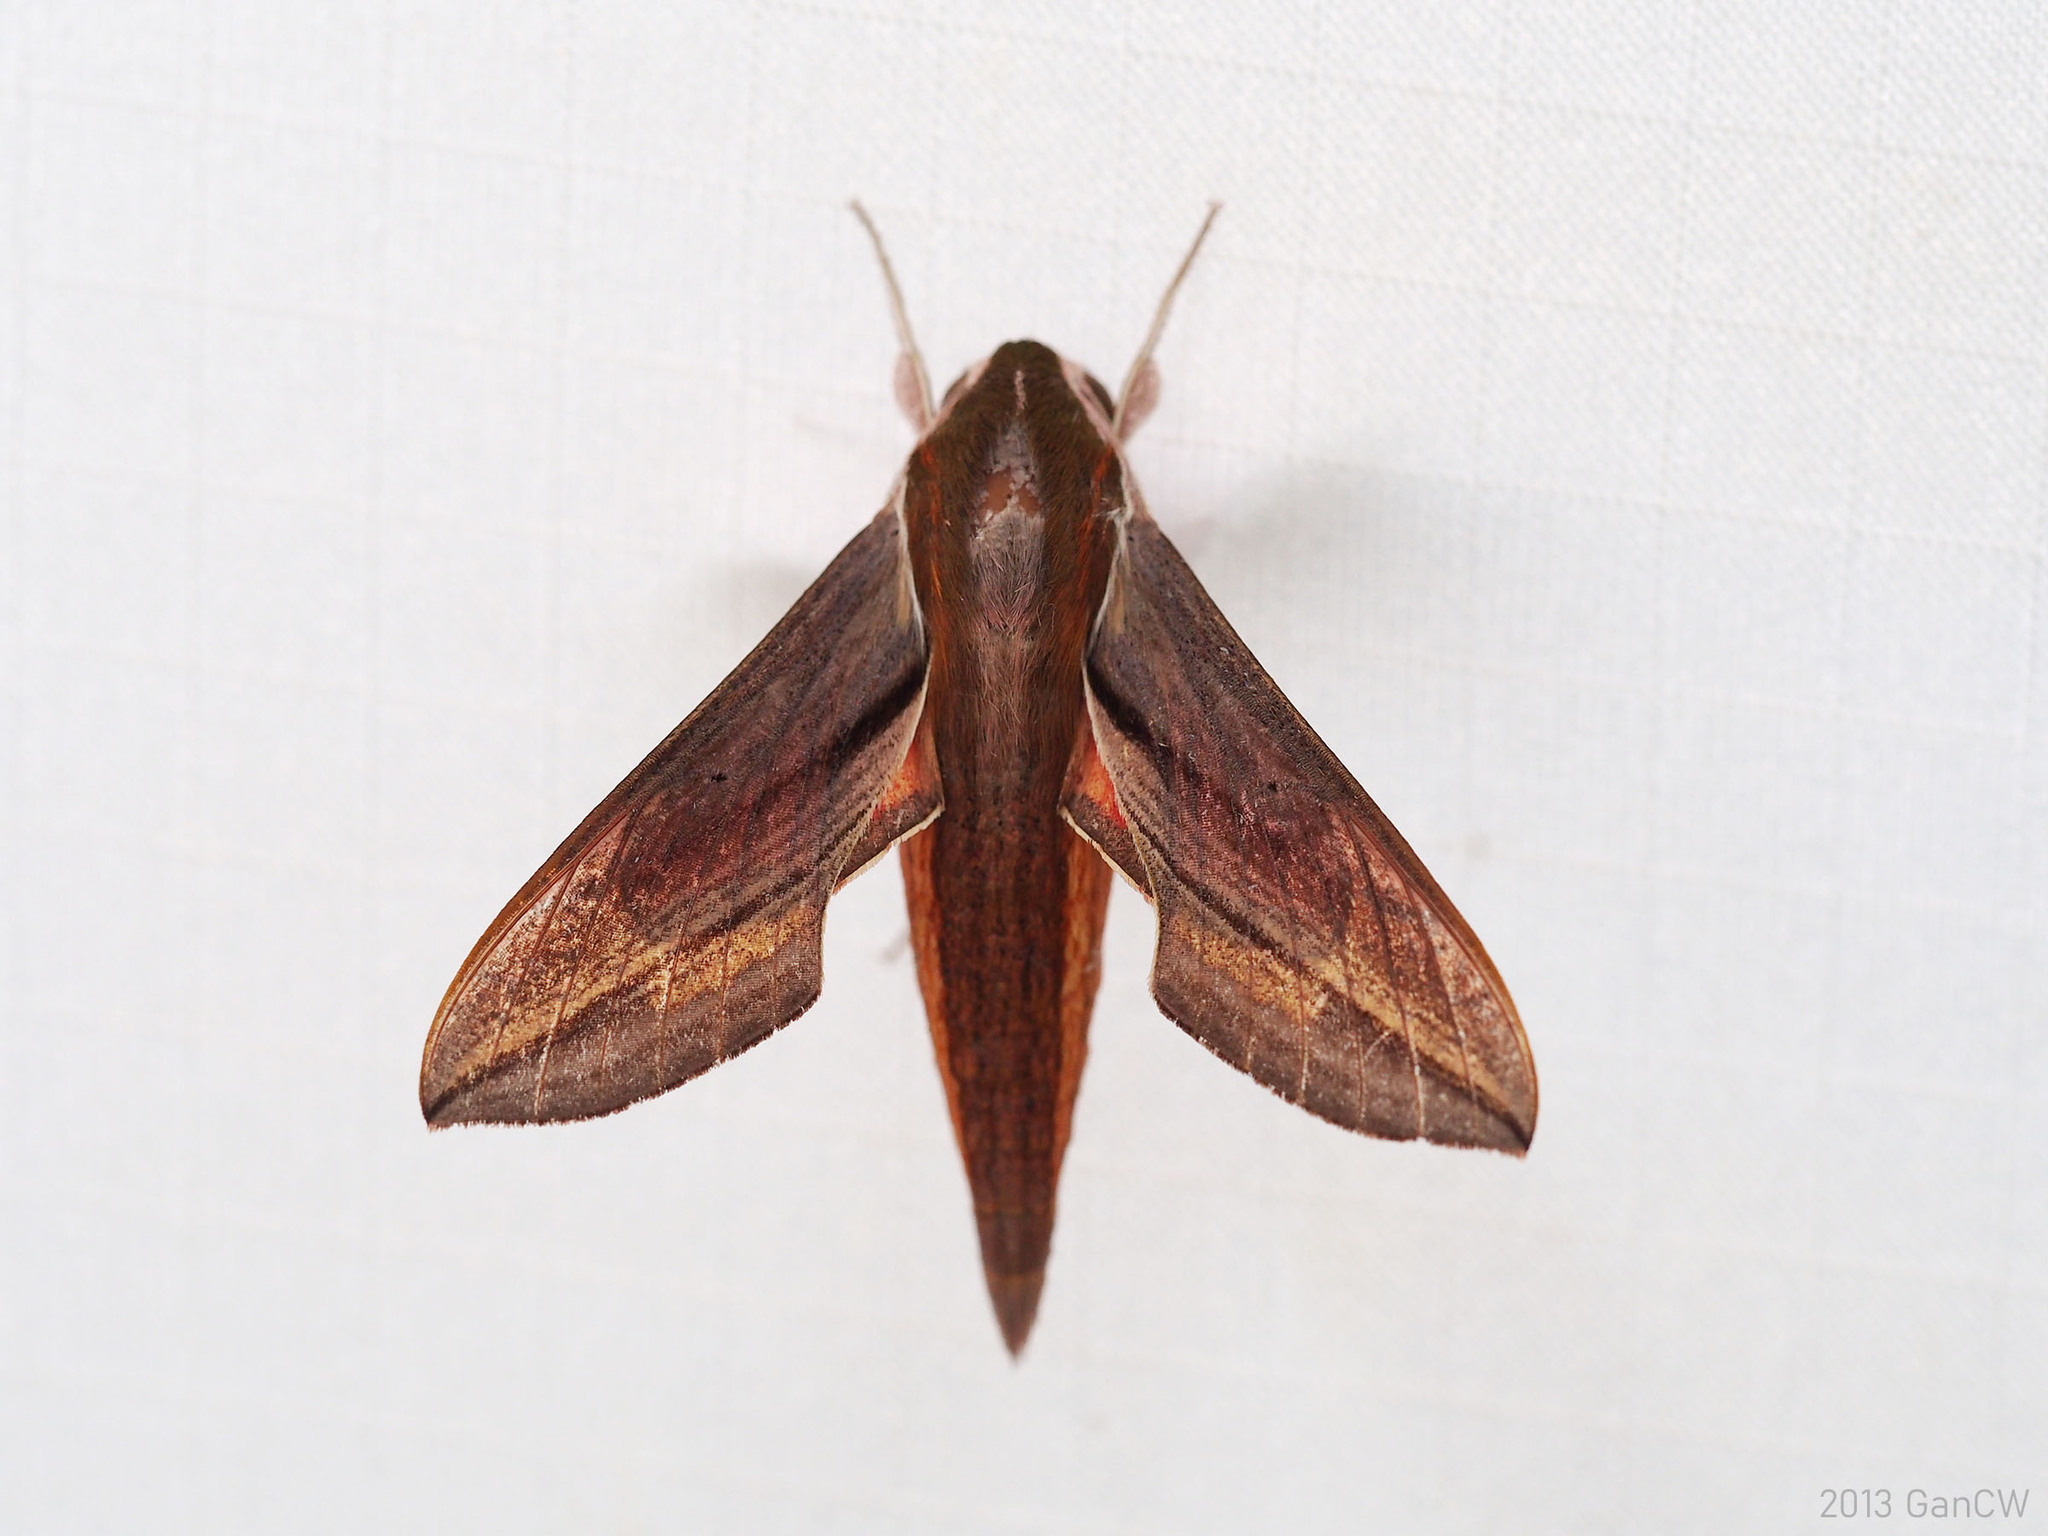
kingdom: Animalia
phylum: Arthropoda
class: Insecta
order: Lepidoptera
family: Sphingidae
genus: Hippotion
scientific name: Hippotion echeclus
